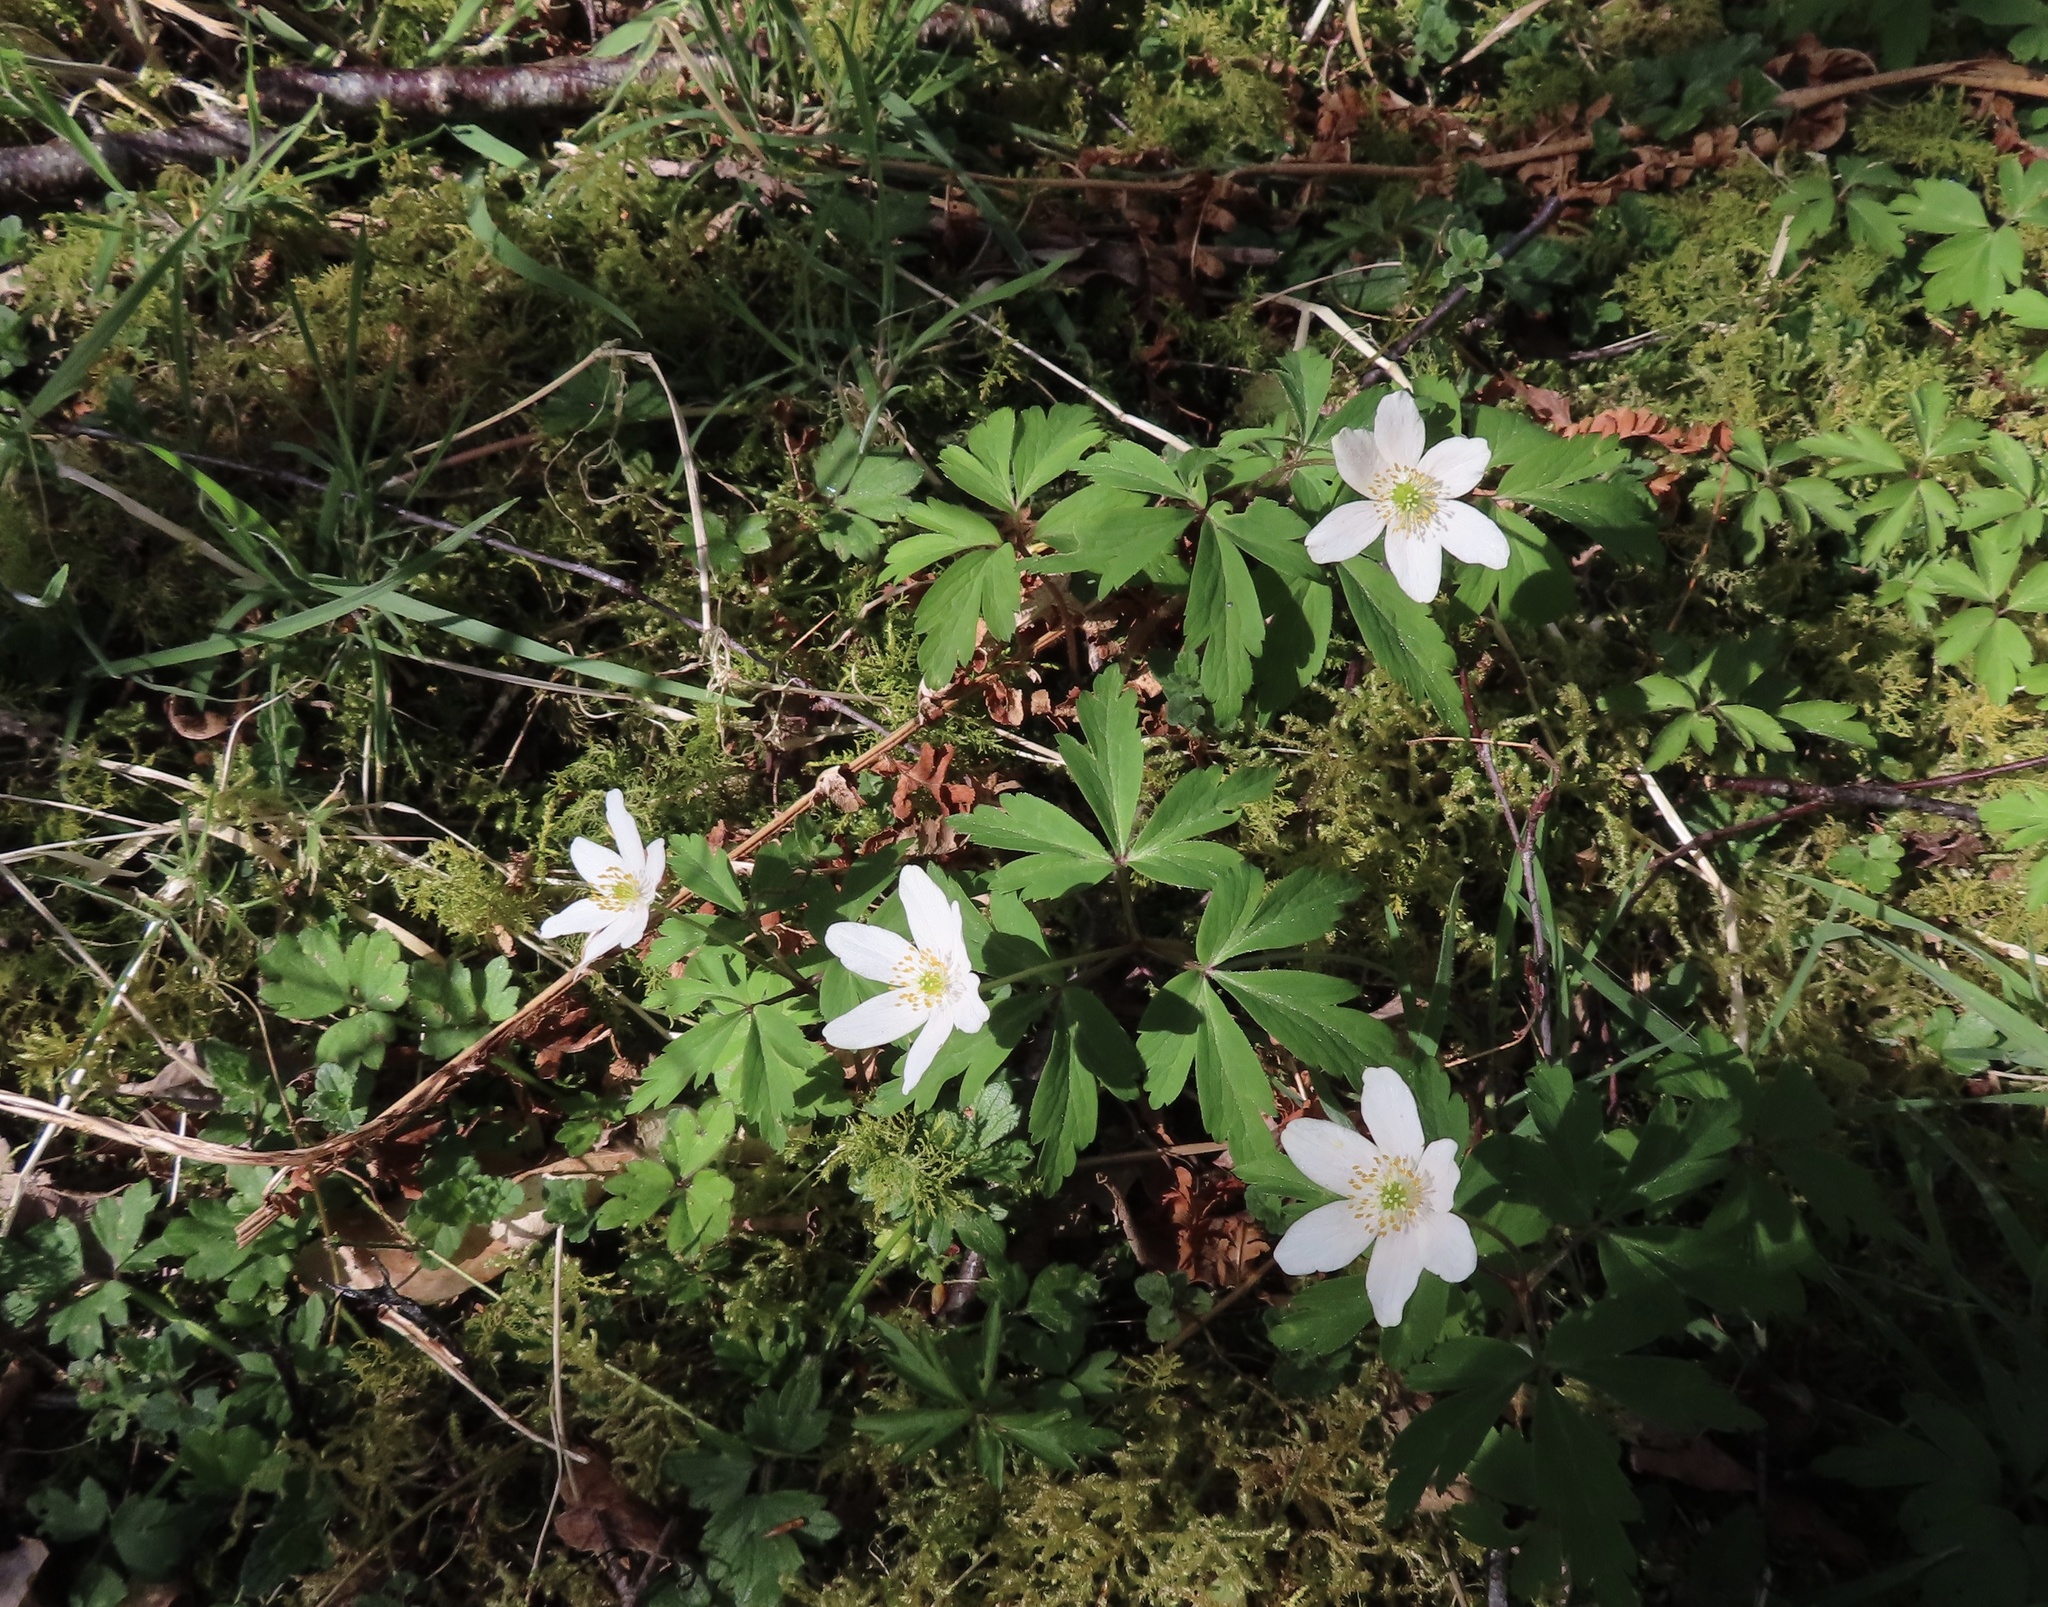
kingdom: Plantae
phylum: Tracheophyta
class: Magnoliopsida
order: Ranunculales
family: Ranunculaceae
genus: Anemone
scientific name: Anemone nemorosa
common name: Wood anemone
